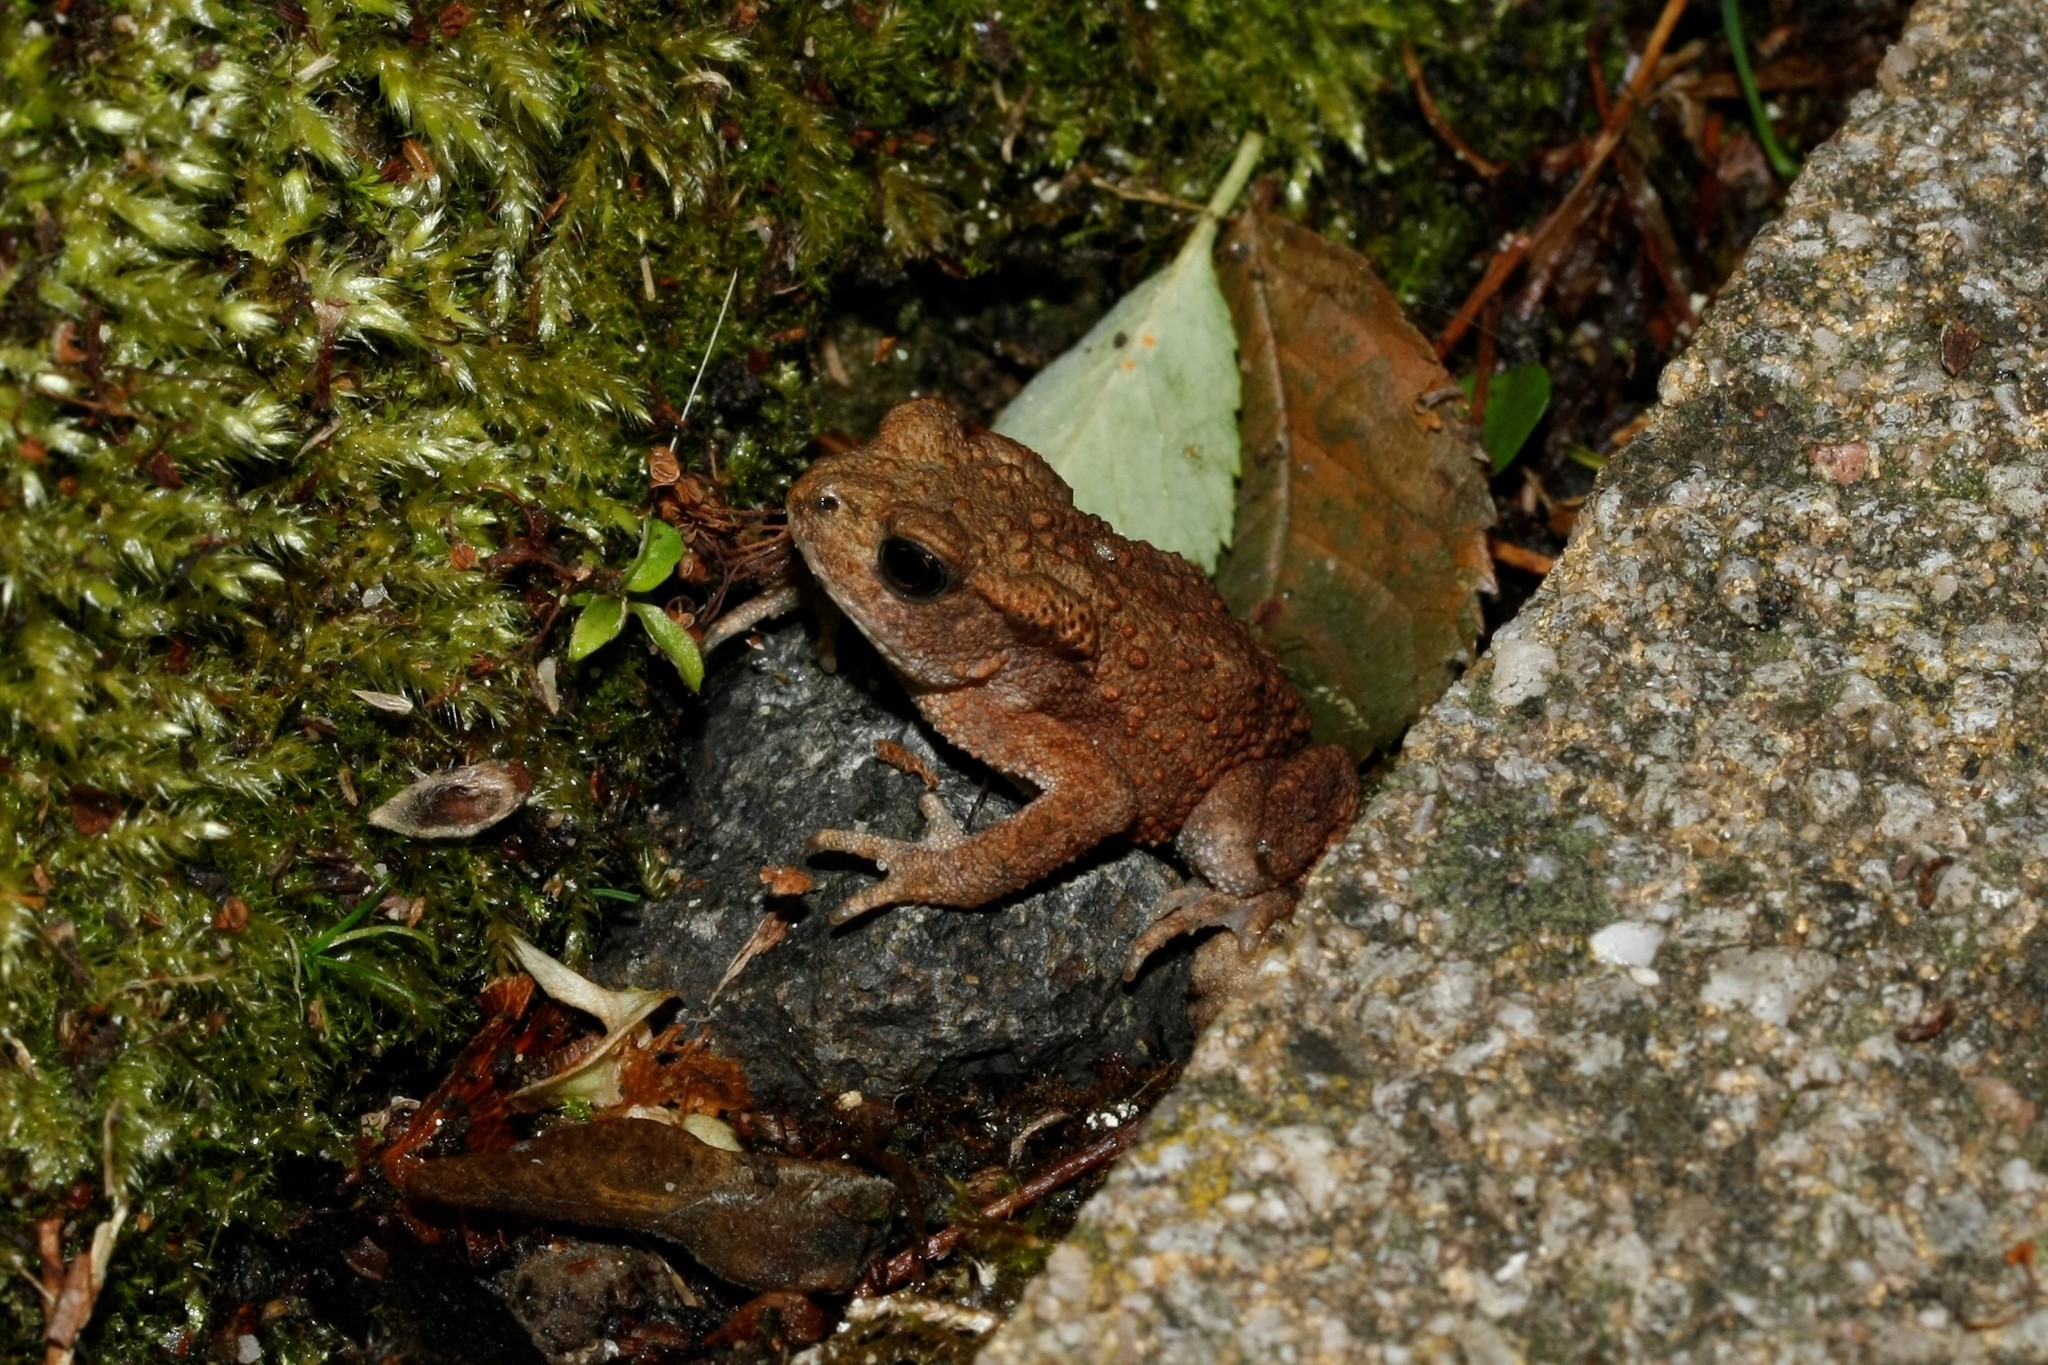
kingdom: Animalia
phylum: Chordata
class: Amphibia
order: Anura
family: Bufonidae
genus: Bufo
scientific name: Bufo bufo
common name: Common toad
